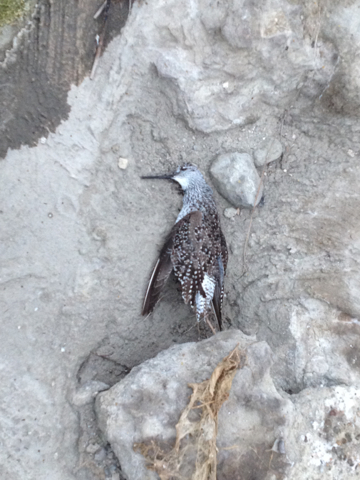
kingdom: Animalia
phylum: Chordata
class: Aves
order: Charadriiformes
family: Scolopacidae
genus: Tringa
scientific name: Tringa melanoleuca
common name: Greater yellowlegs
